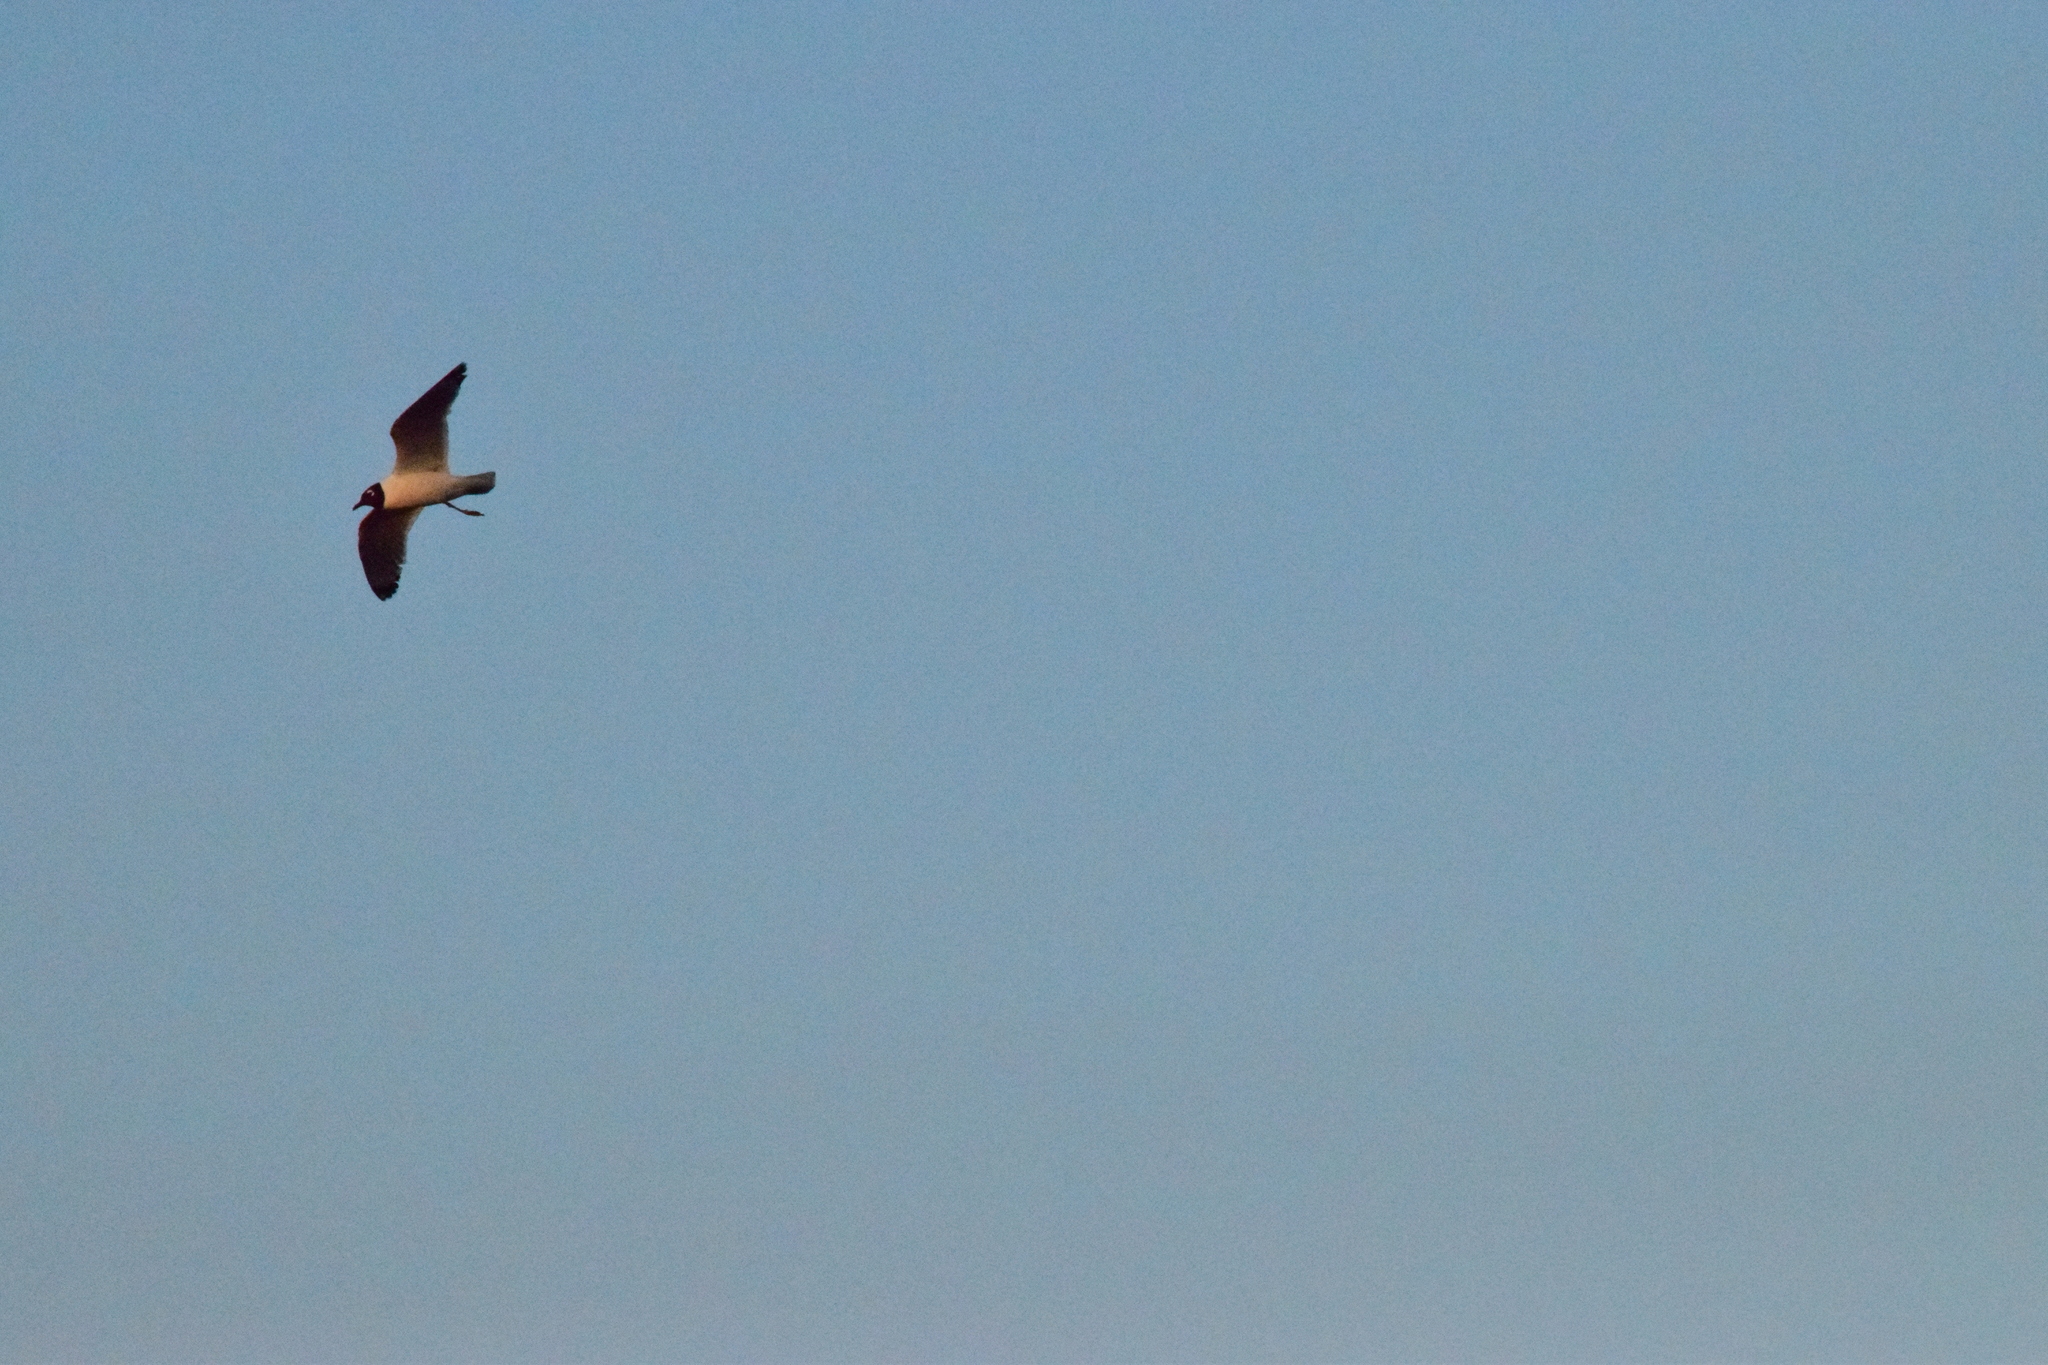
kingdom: Animalia
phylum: Chordata
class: Aves
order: Charadriiformes
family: Laridae
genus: Leucophaeus
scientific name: Leucophaeus pipixcan
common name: Franklin's gull
